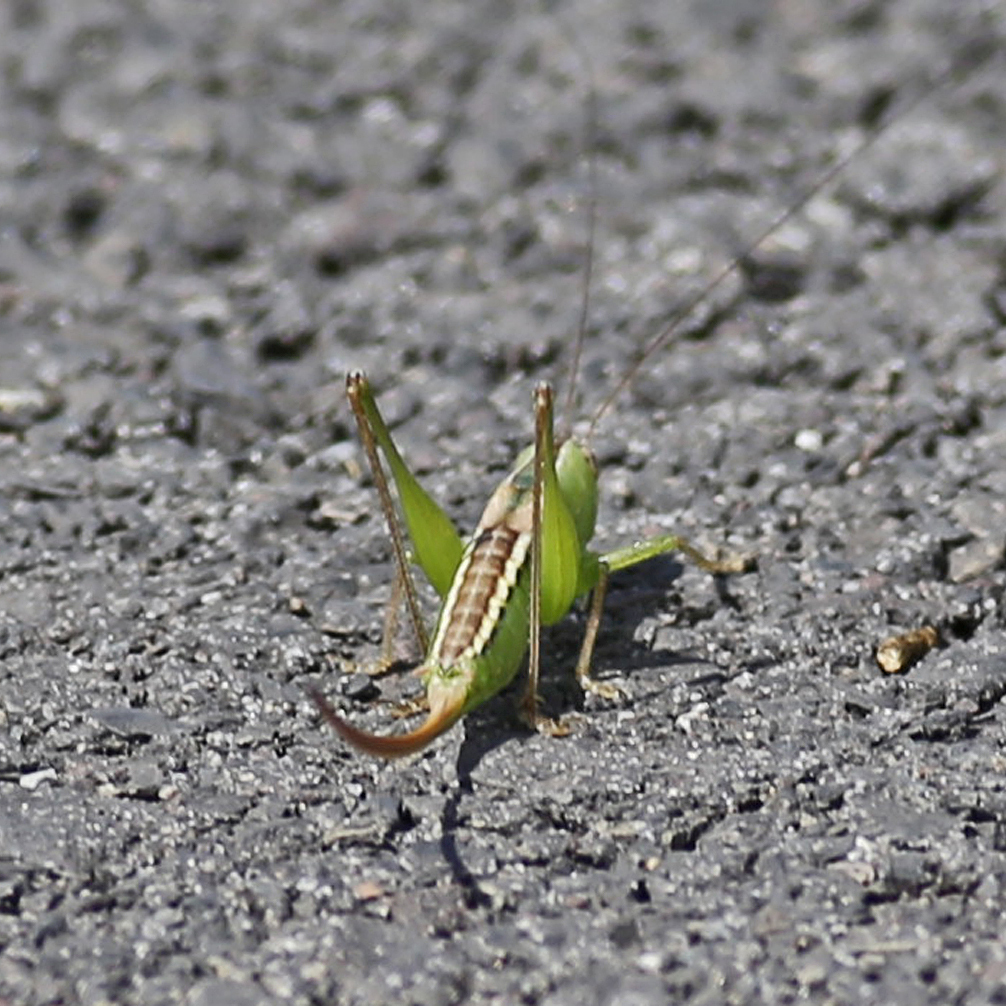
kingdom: Animalia
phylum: Arthropoda
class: Insecta
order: Orthoptera
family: Tettigoniidae
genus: Conocephalus
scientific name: Conocephalus strictus
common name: Straight-lanced katydid
